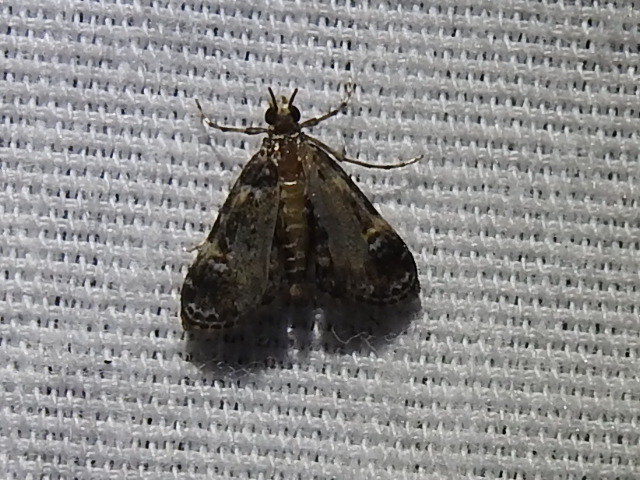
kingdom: Animalia
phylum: Arthropoda
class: Insecta
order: Lepidoptera
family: Crambidae
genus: Elophila
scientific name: Elophila obliteralis
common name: Waterlily leafcutter moth
